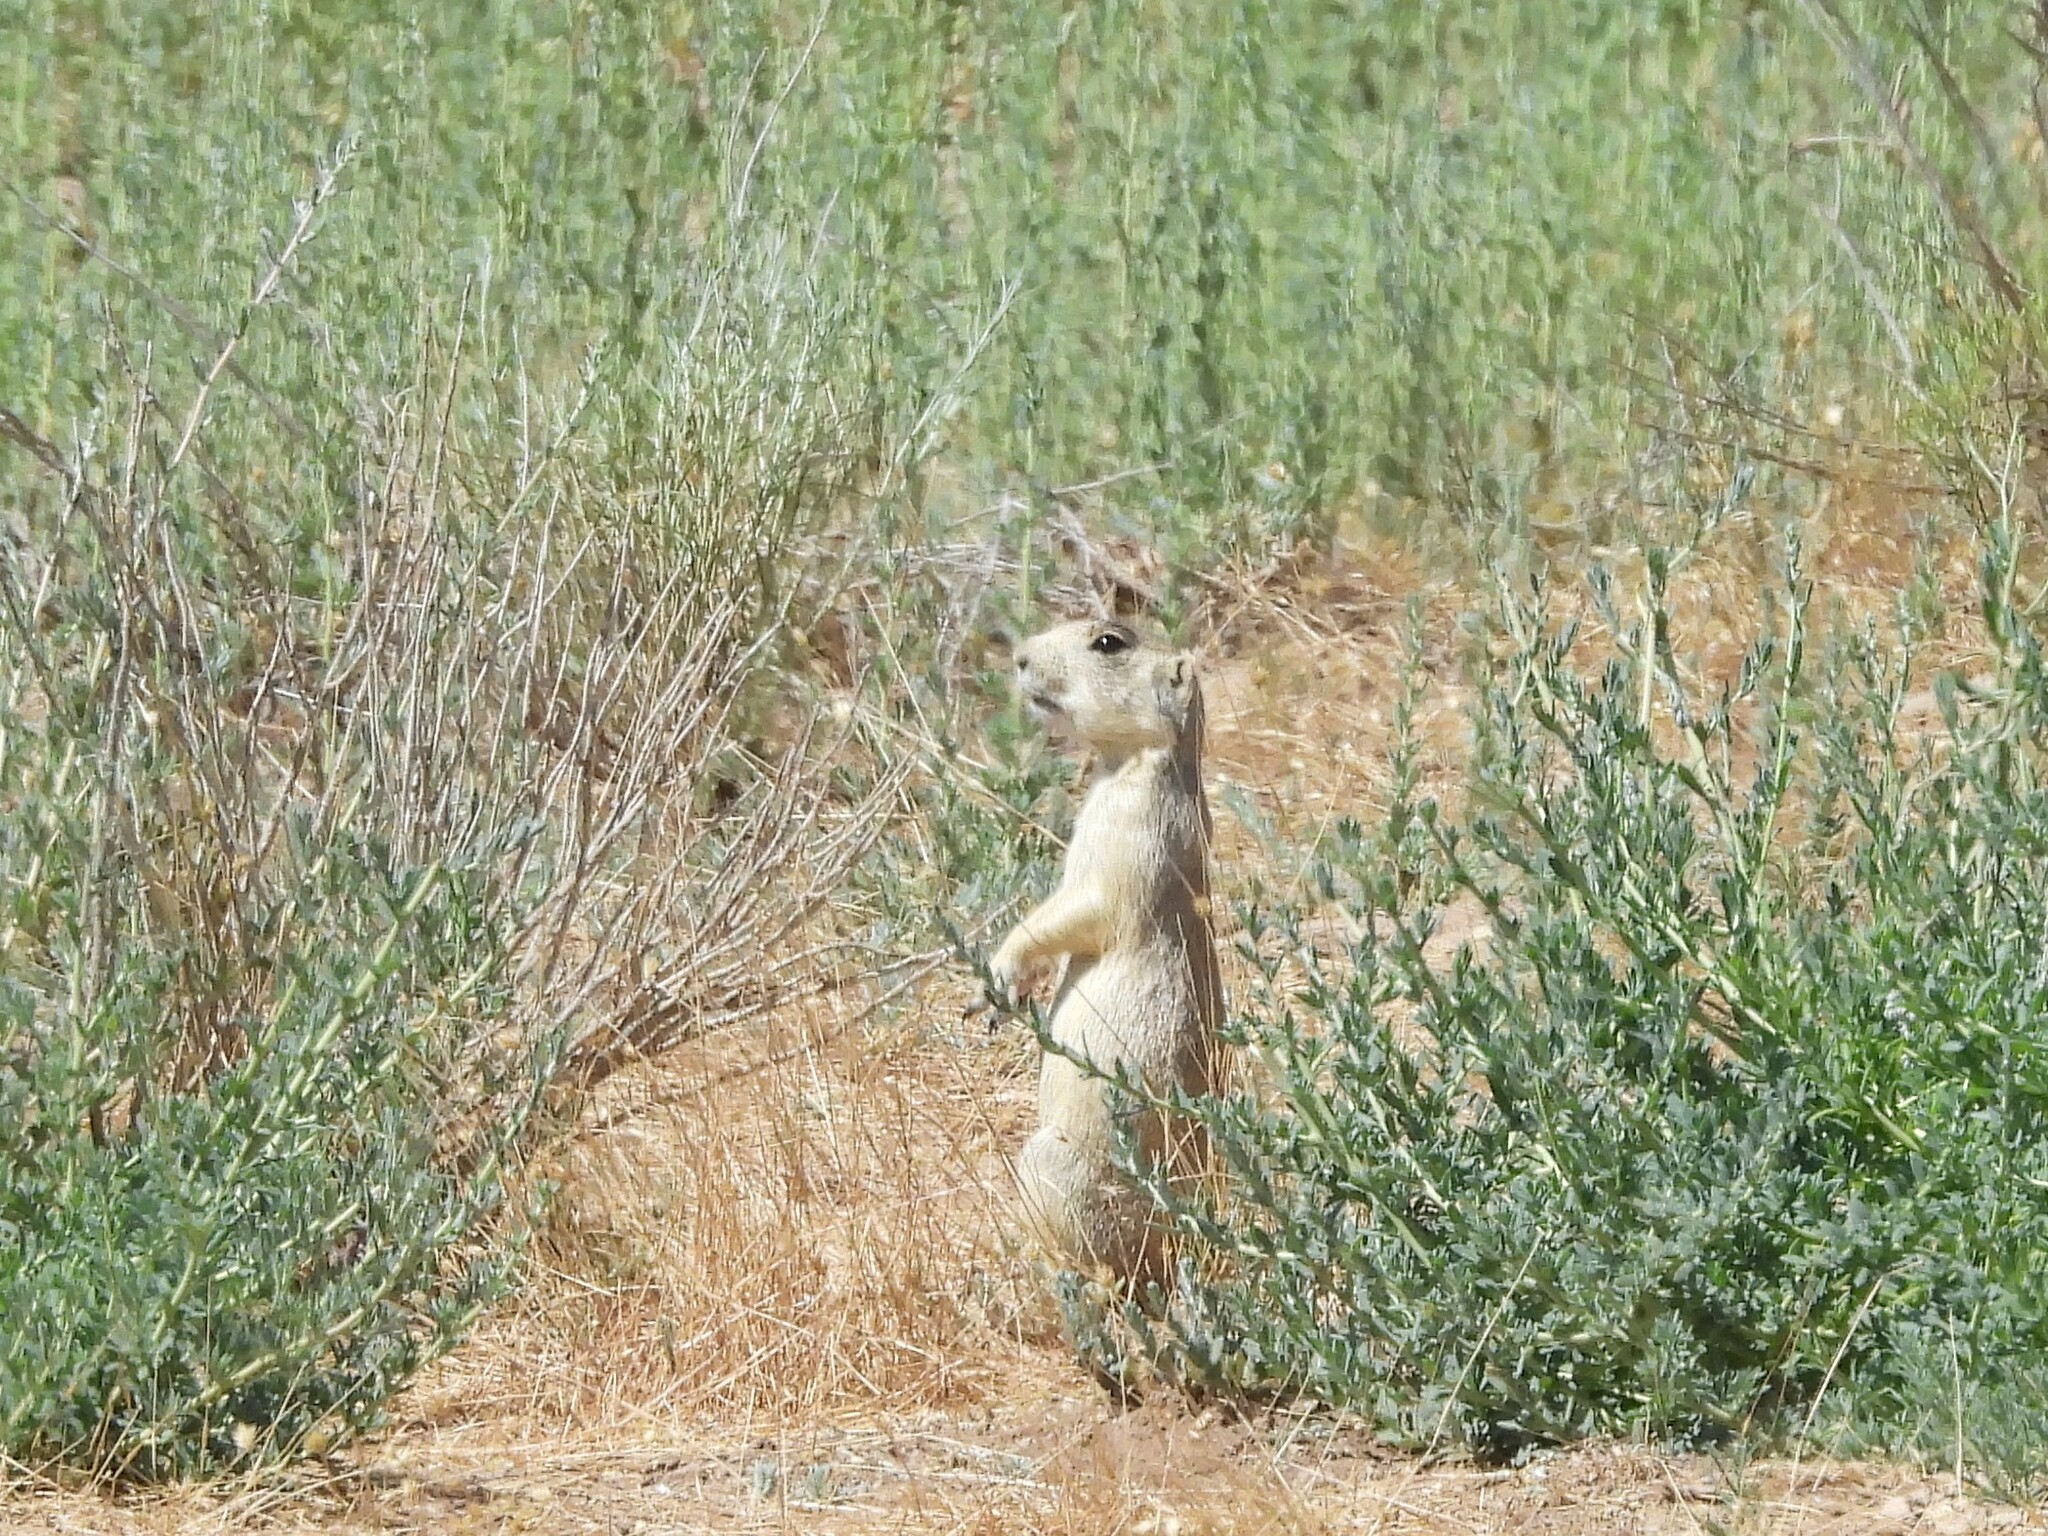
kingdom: Animalia
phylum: Chordata
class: Mammalia
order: Rodentia
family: Sciuridae
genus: Cynomys
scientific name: Cynomys leucurus
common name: White-tailed prairie dog
